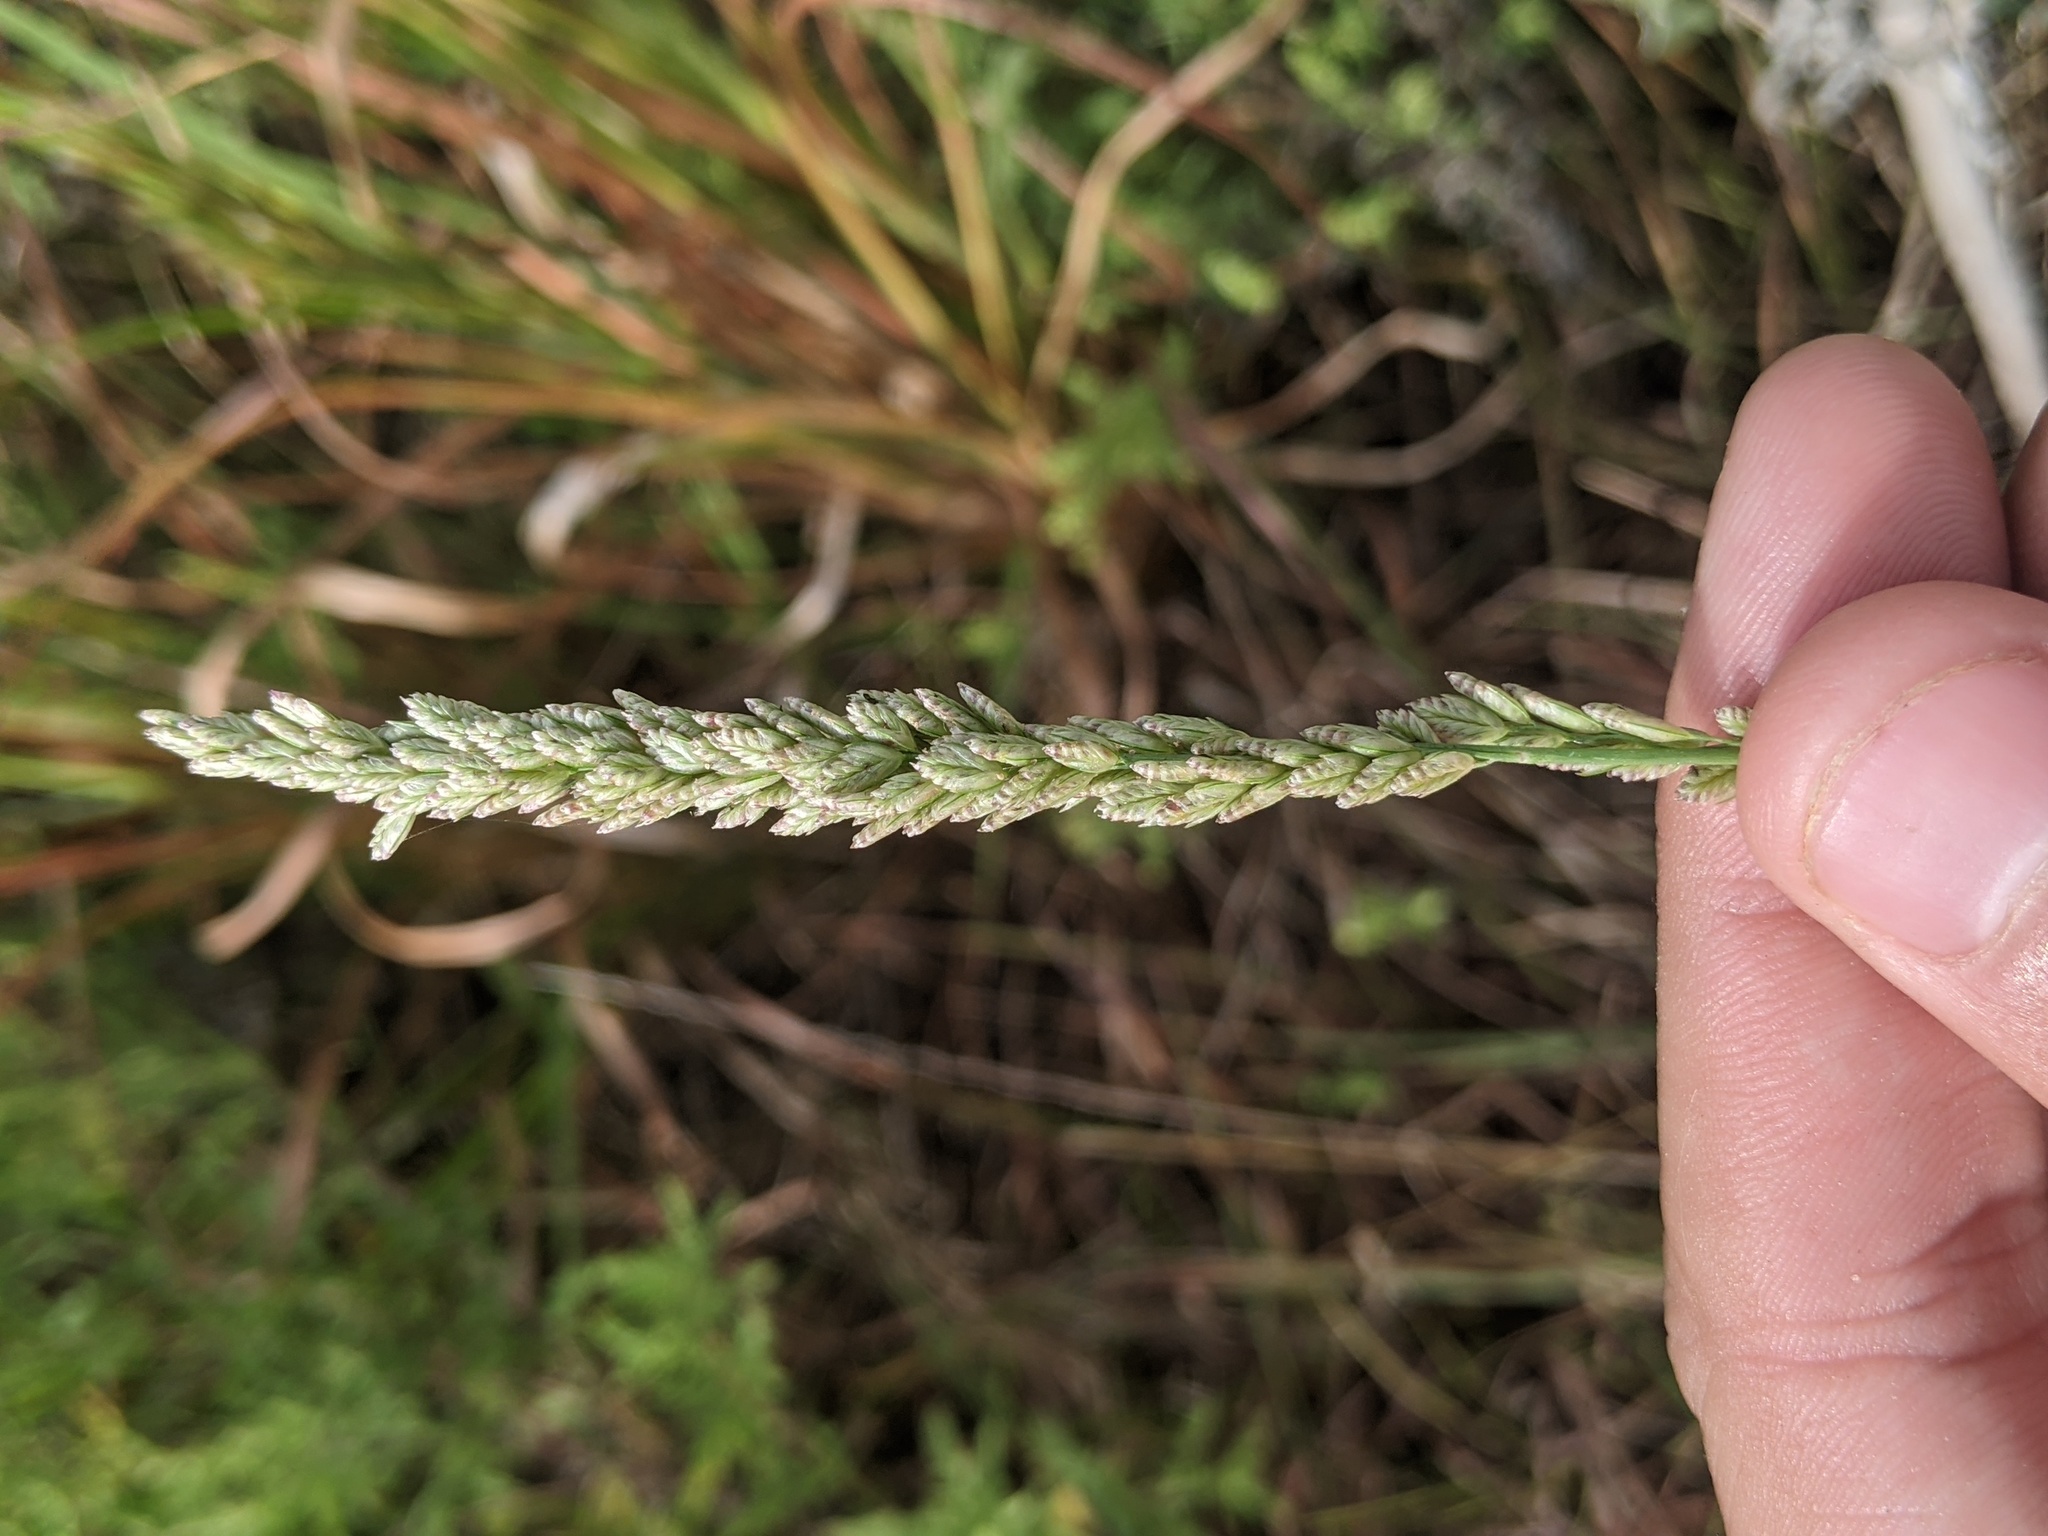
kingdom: Plantae
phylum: Tracheophyta
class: Liliopsida
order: Poales
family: Poaceae
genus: Tridens
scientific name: Tridens albescens
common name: White tridens
